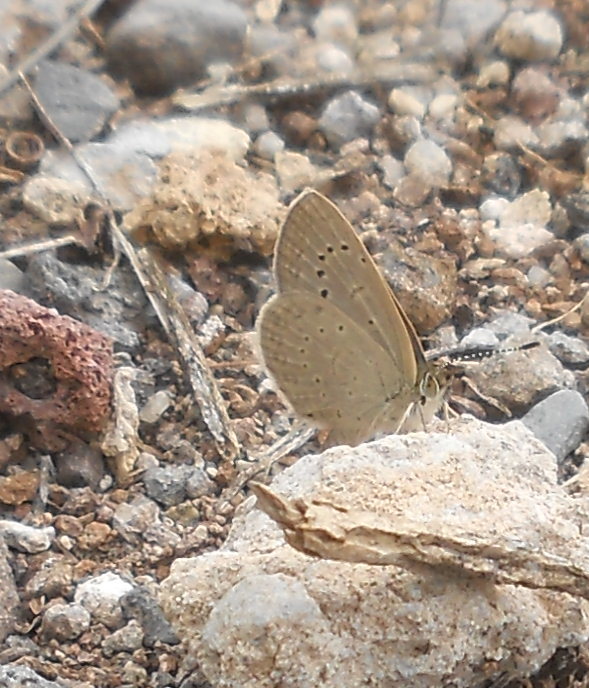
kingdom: Animalia
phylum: Arthropoda
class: Insecta
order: Lepidoptera
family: Lycaenidae
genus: Zizeeria
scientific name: Zizeeria knysna
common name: African grass blue
